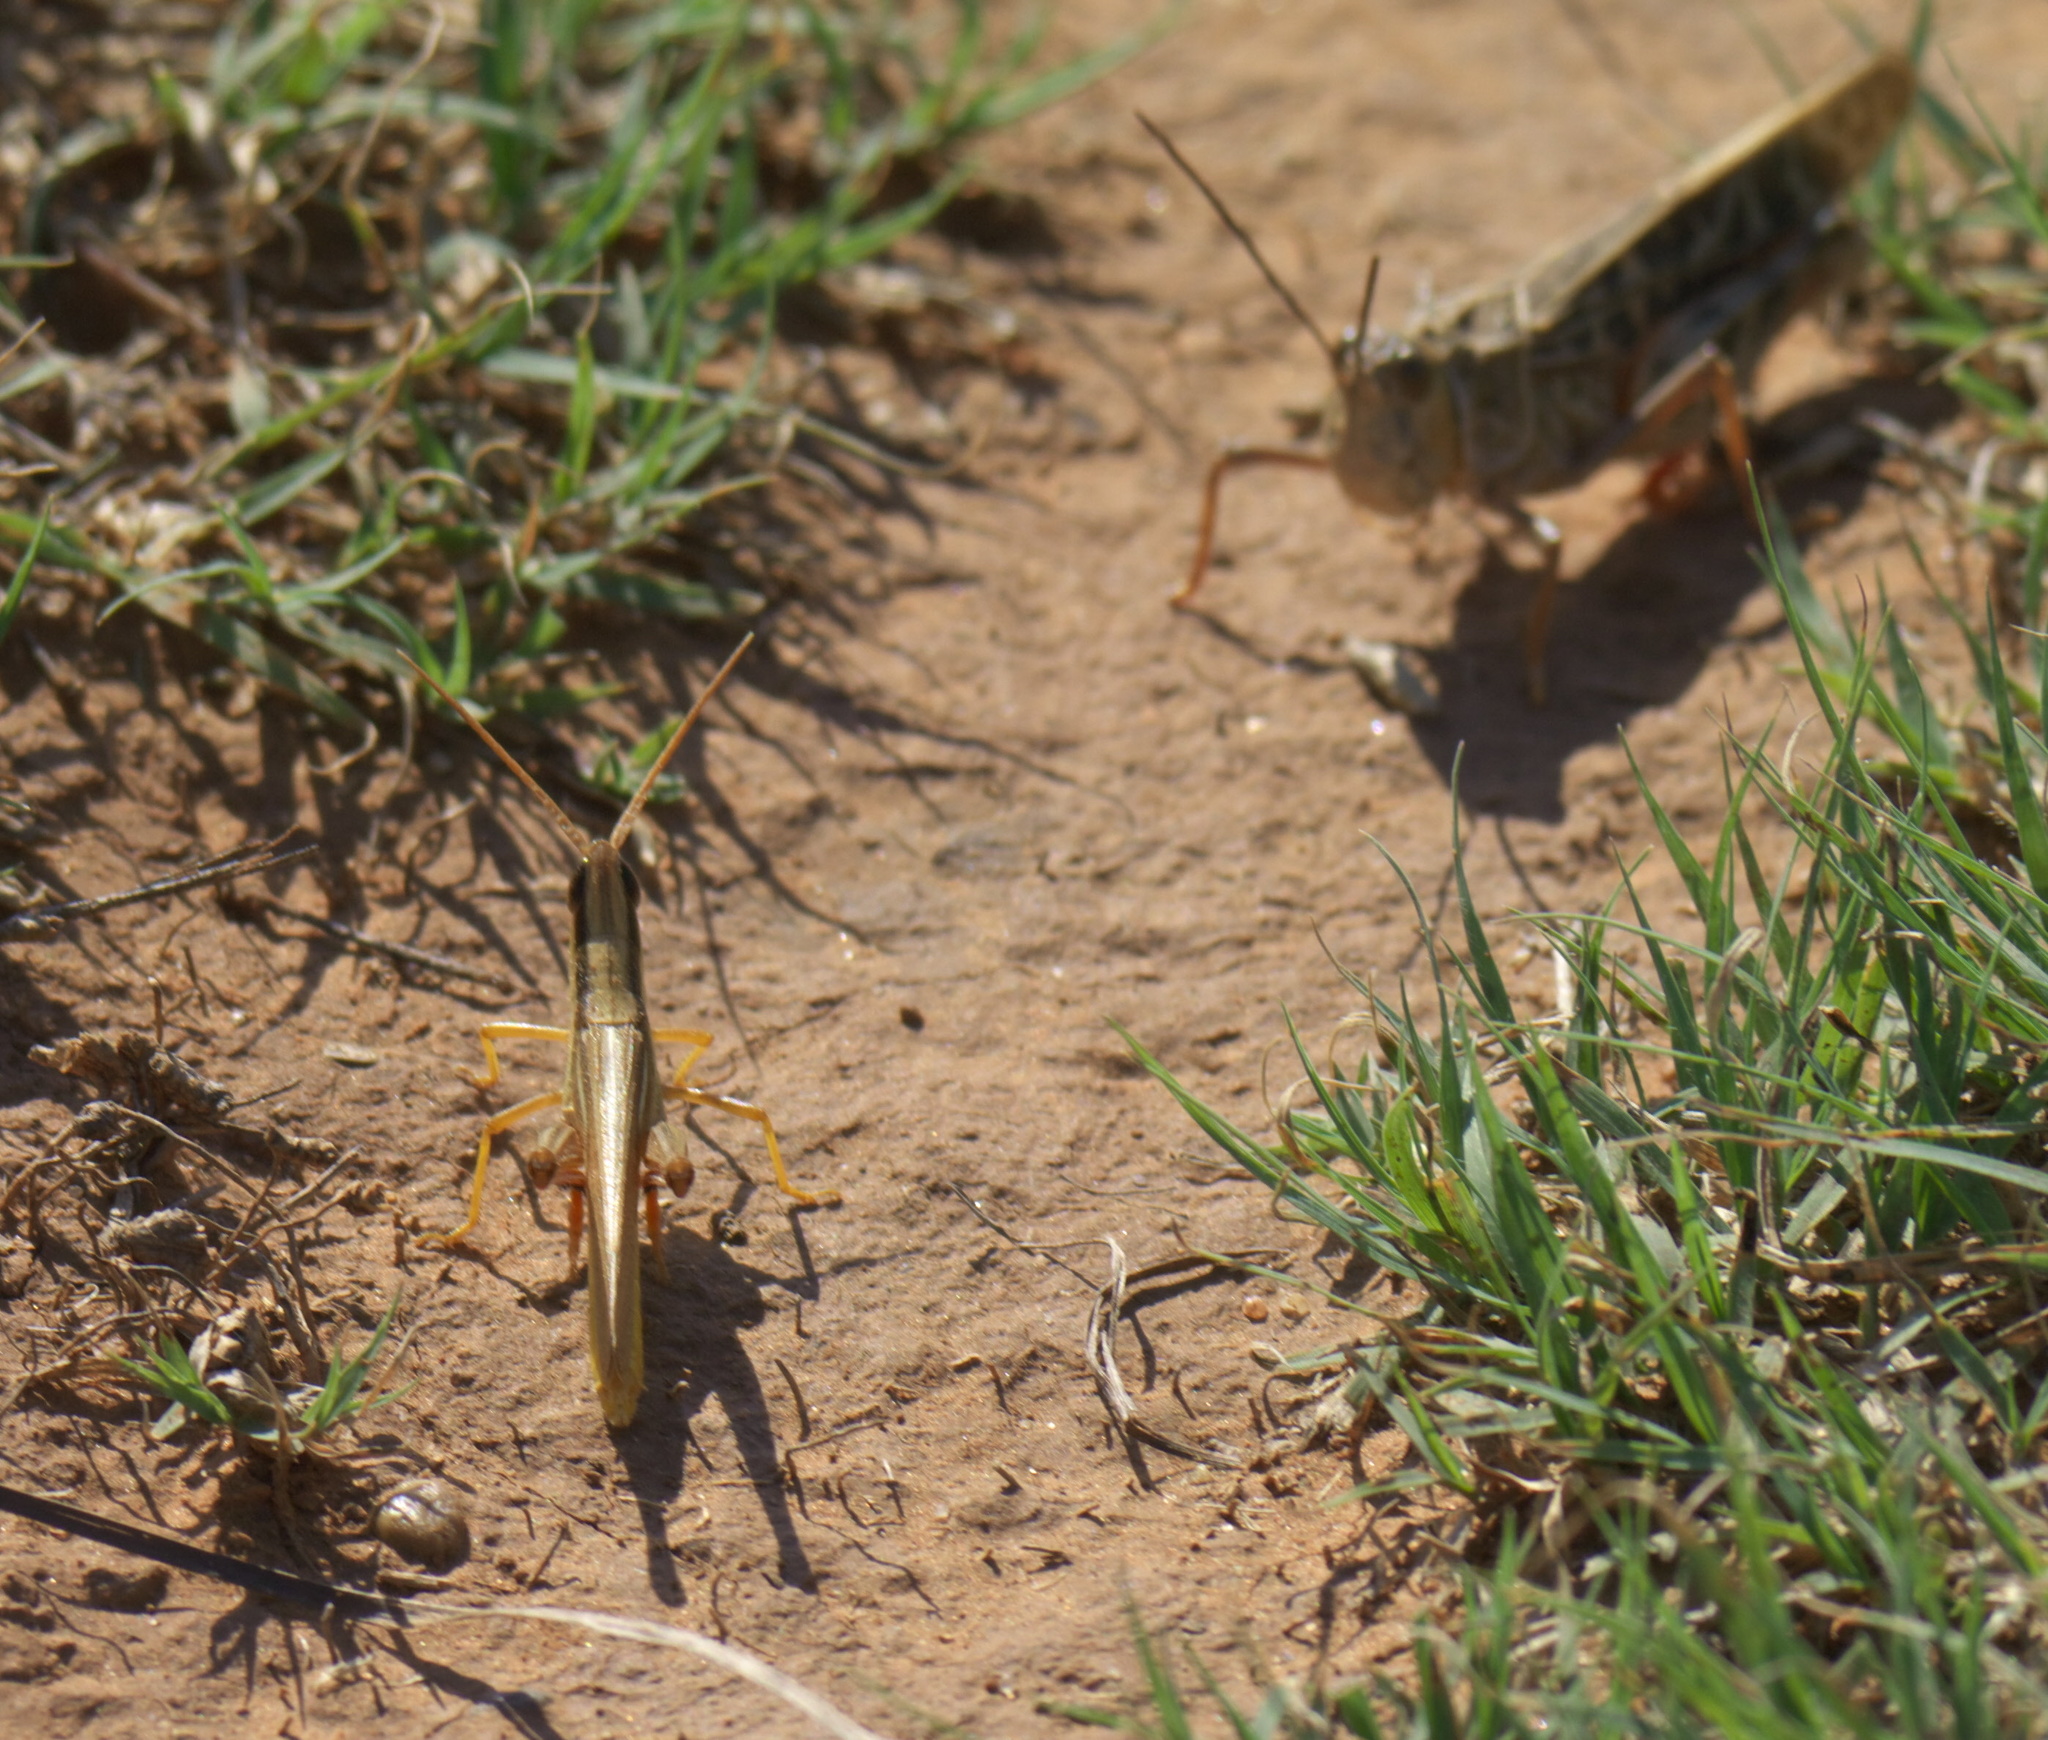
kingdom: Animalia
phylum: Arthropoda
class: Insecta
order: Orthoptera
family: Acrididae
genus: Mermiria
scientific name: Mermiria bivittata
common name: Two-striped mermiria grasshopper
